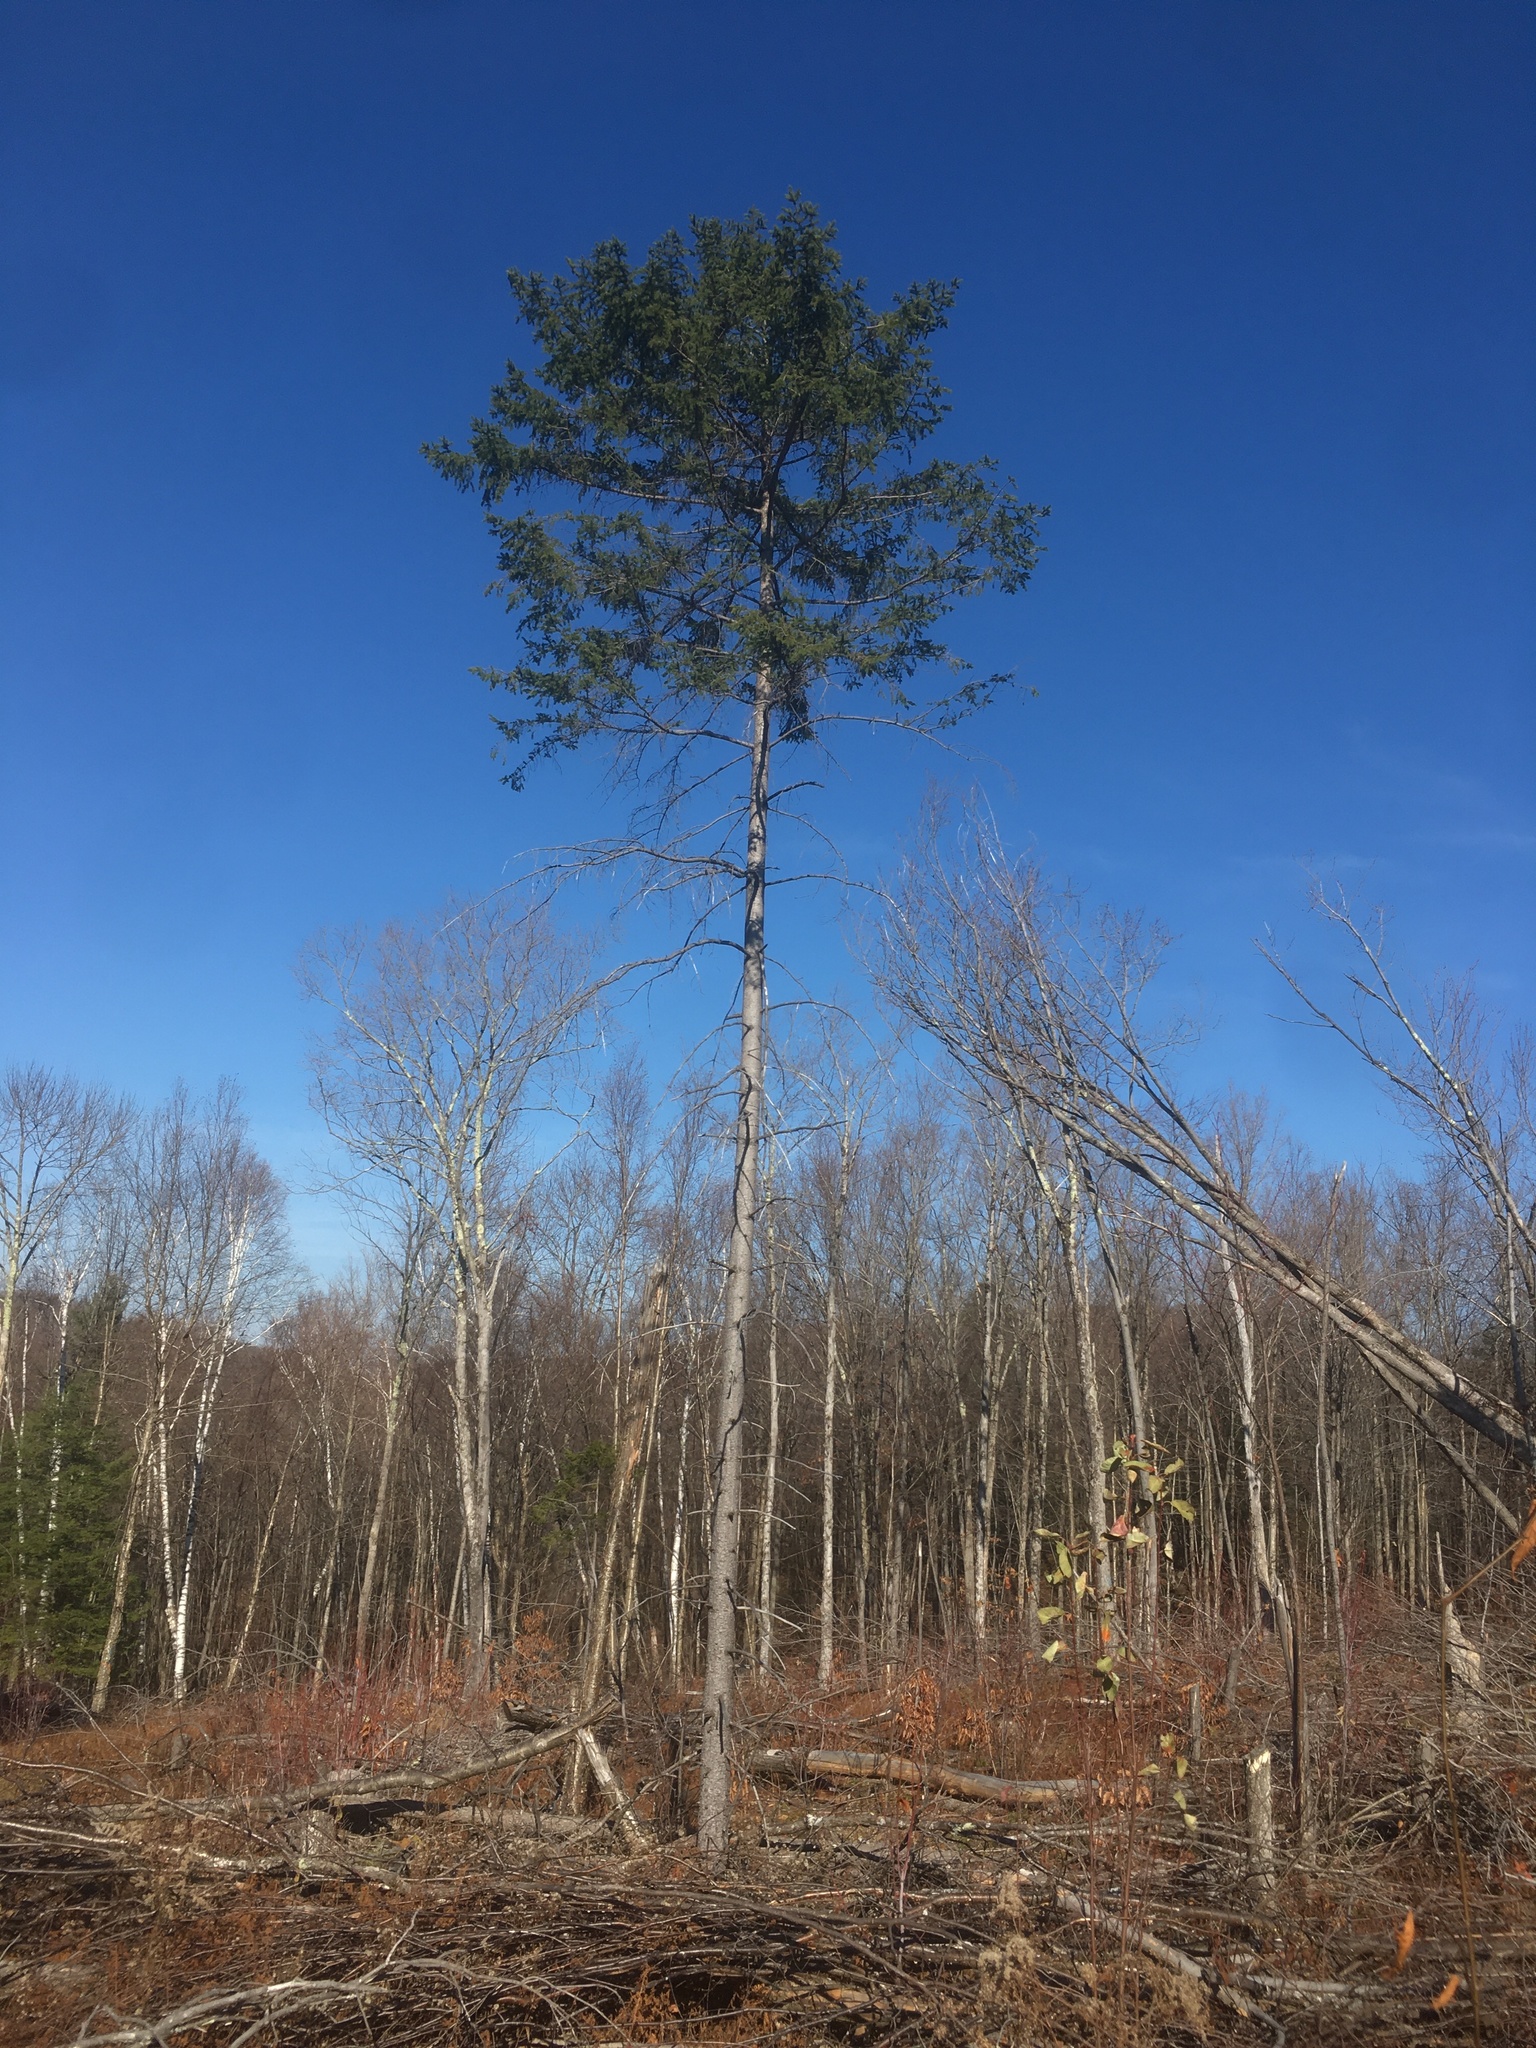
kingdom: Plantae
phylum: Tracheophyta
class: Pinopsida
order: Pinales
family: Pinaceae
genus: Picea
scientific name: Picea rubens
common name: Red spruce
